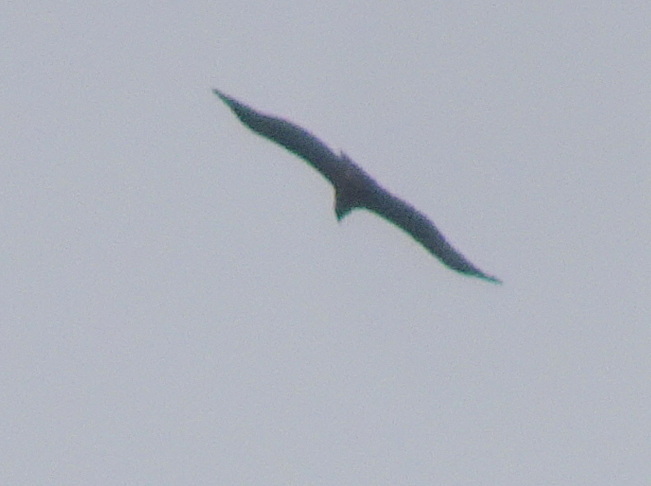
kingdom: Animalia
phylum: Chordata
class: Aves
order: Accipitriformes
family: Accipitridae
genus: Aegypius
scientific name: Aegypius monachus
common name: Cinereous vulture
